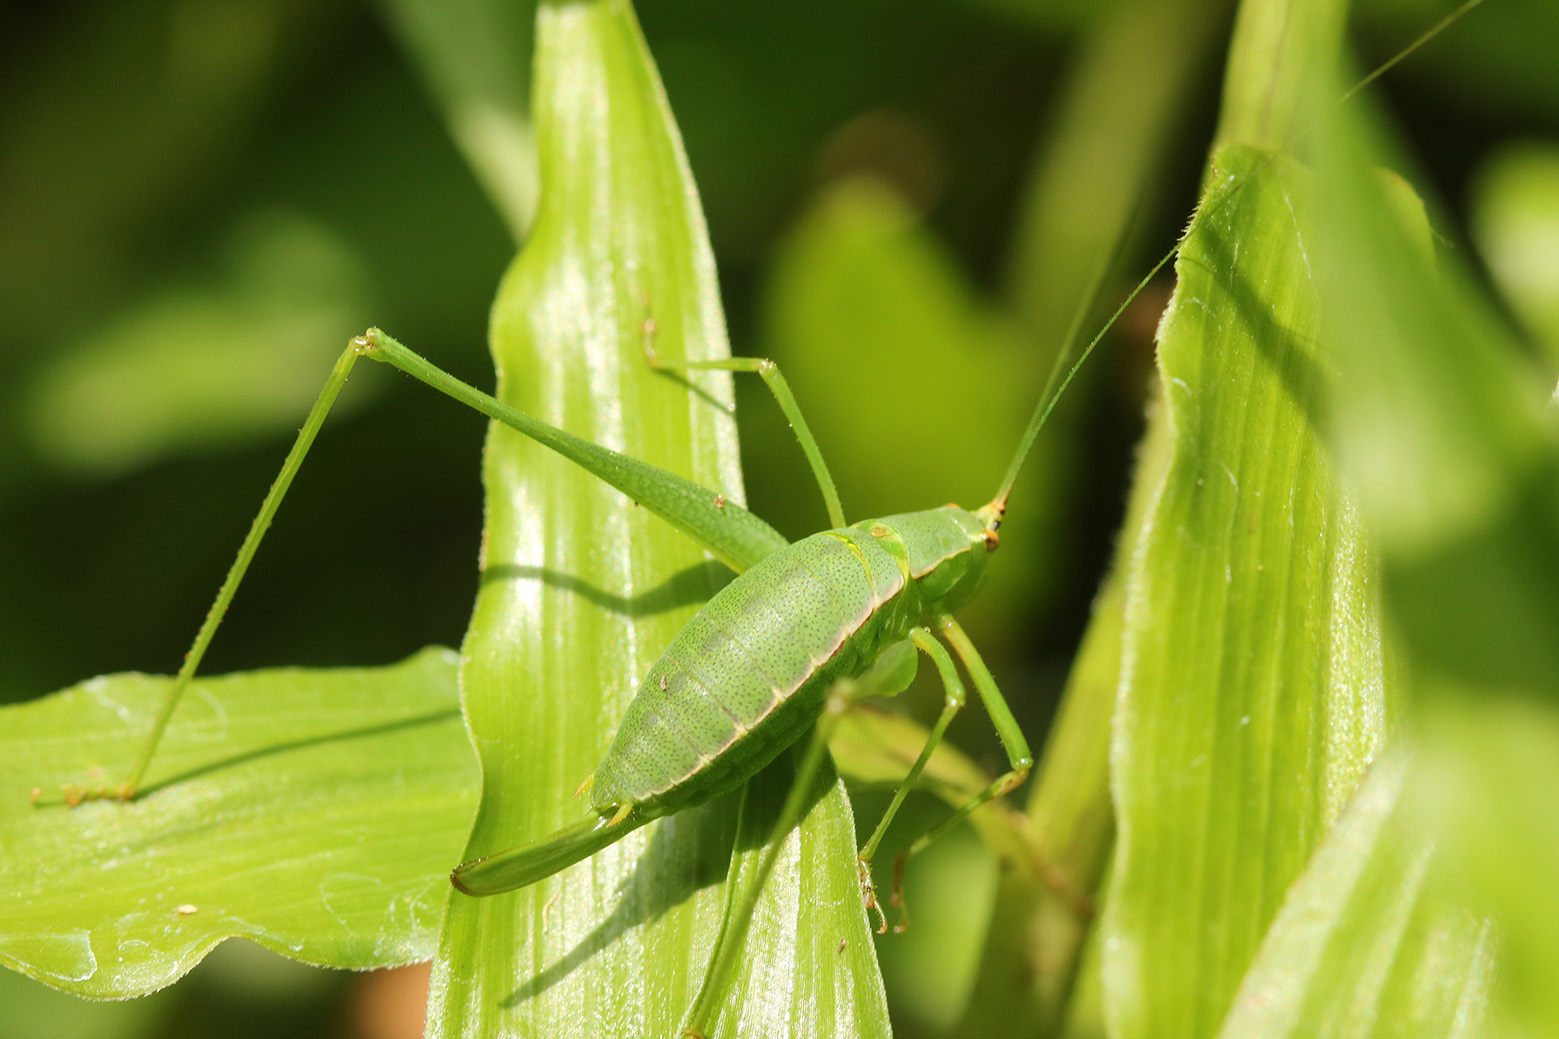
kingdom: Animalia
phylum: Arthropoda
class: Insecta
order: Orthoptera
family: Tettigoniidae
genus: Xenicola
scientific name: Xenicola dohrni
